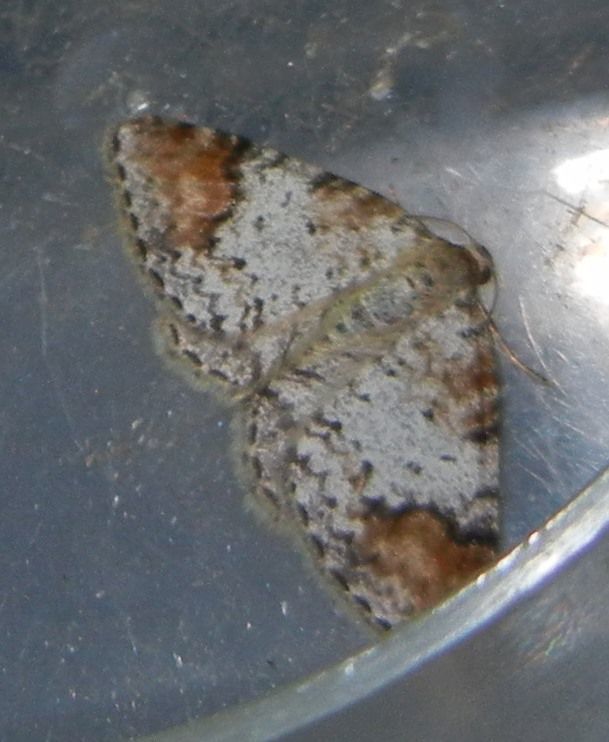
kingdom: Animalia
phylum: Arthropoda
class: Insecta
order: Lepidoptera
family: Geometridae
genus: Venusia
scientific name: Venusia blomeri
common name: Blomer's rivulet
